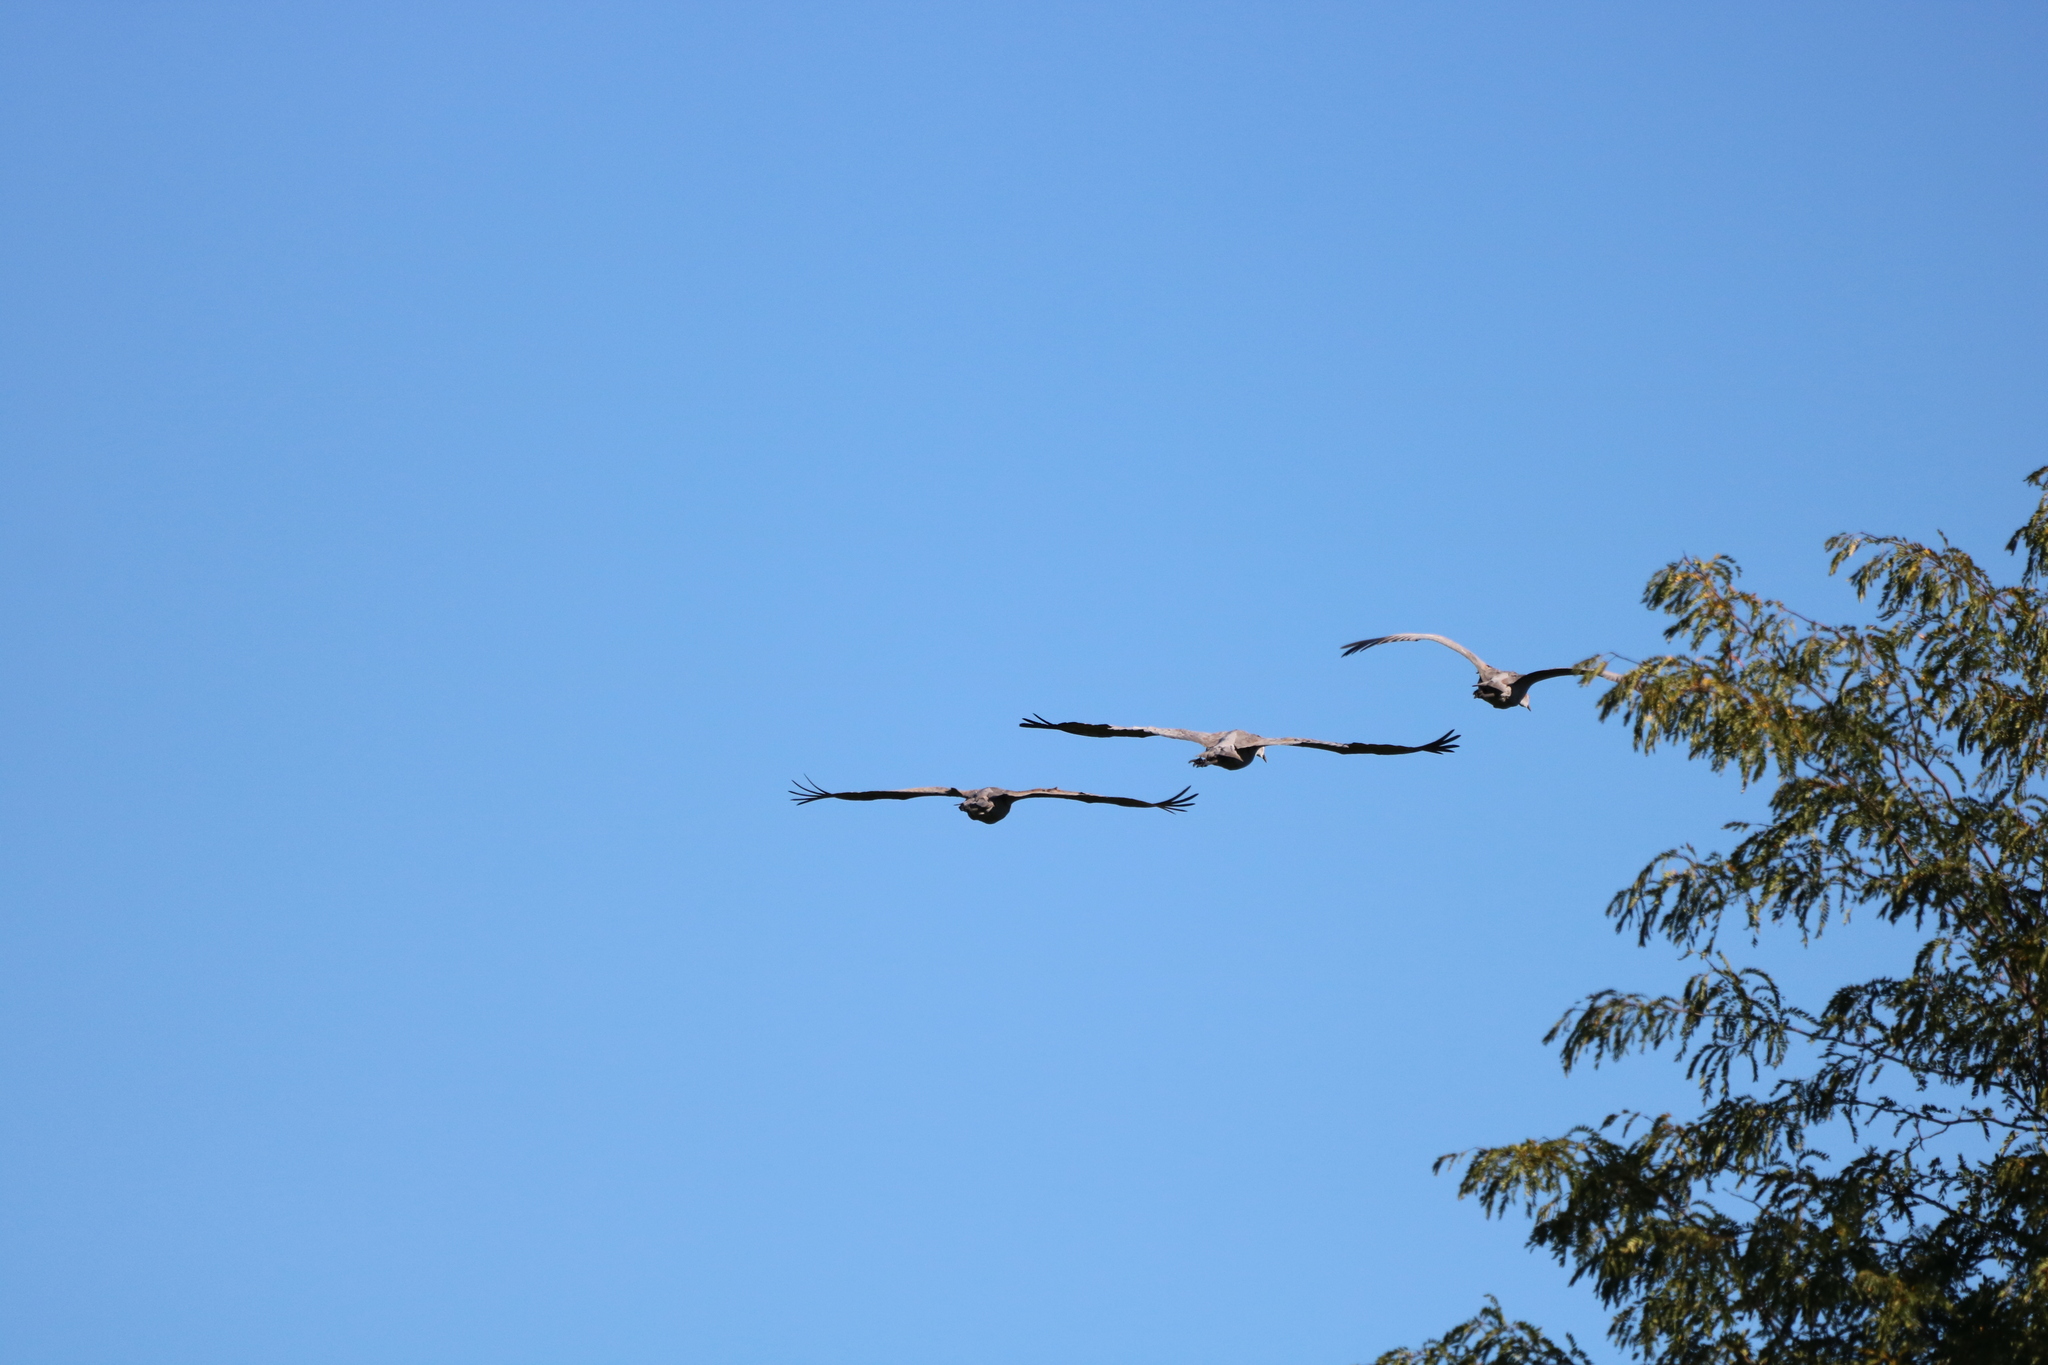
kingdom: Animalia
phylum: Chordata
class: Aves
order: Gruiformes
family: Gruidae
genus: Grus
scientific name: Grus canadensis
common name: Sandhill crane
